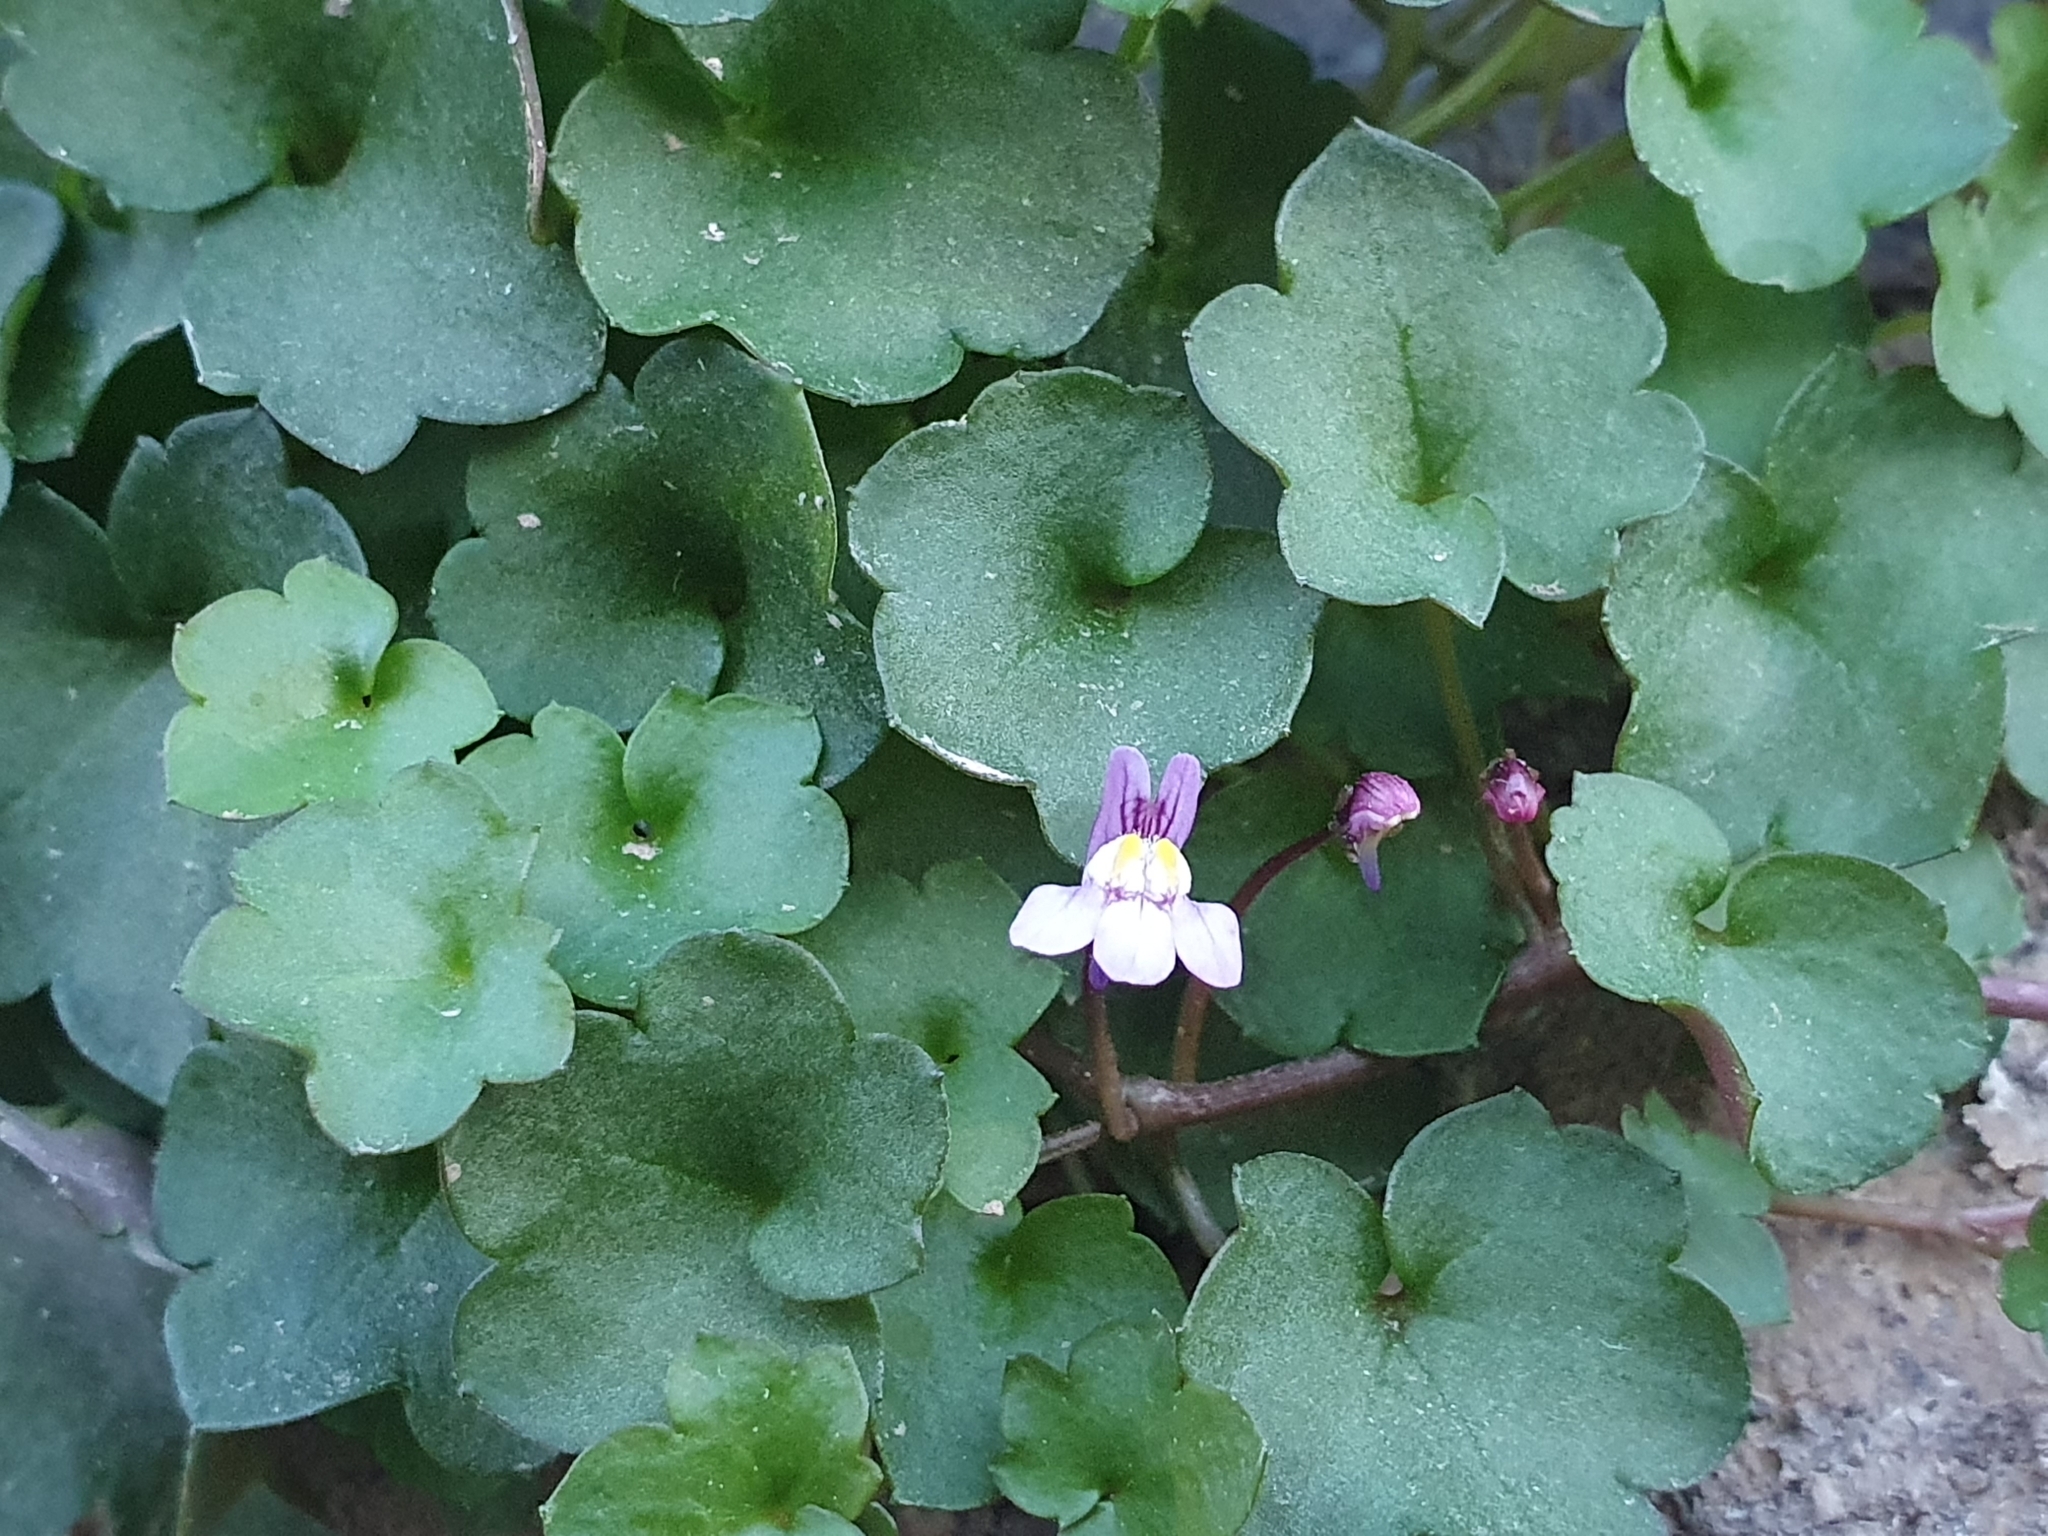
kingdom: Plantae
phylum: Tracheophyta
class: Magnoliopsida
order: Lamiales
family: Plantaginaceae
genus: Cymbalaria
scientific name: Cymbalaria muralis
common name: Ivy-leaved toadflax
